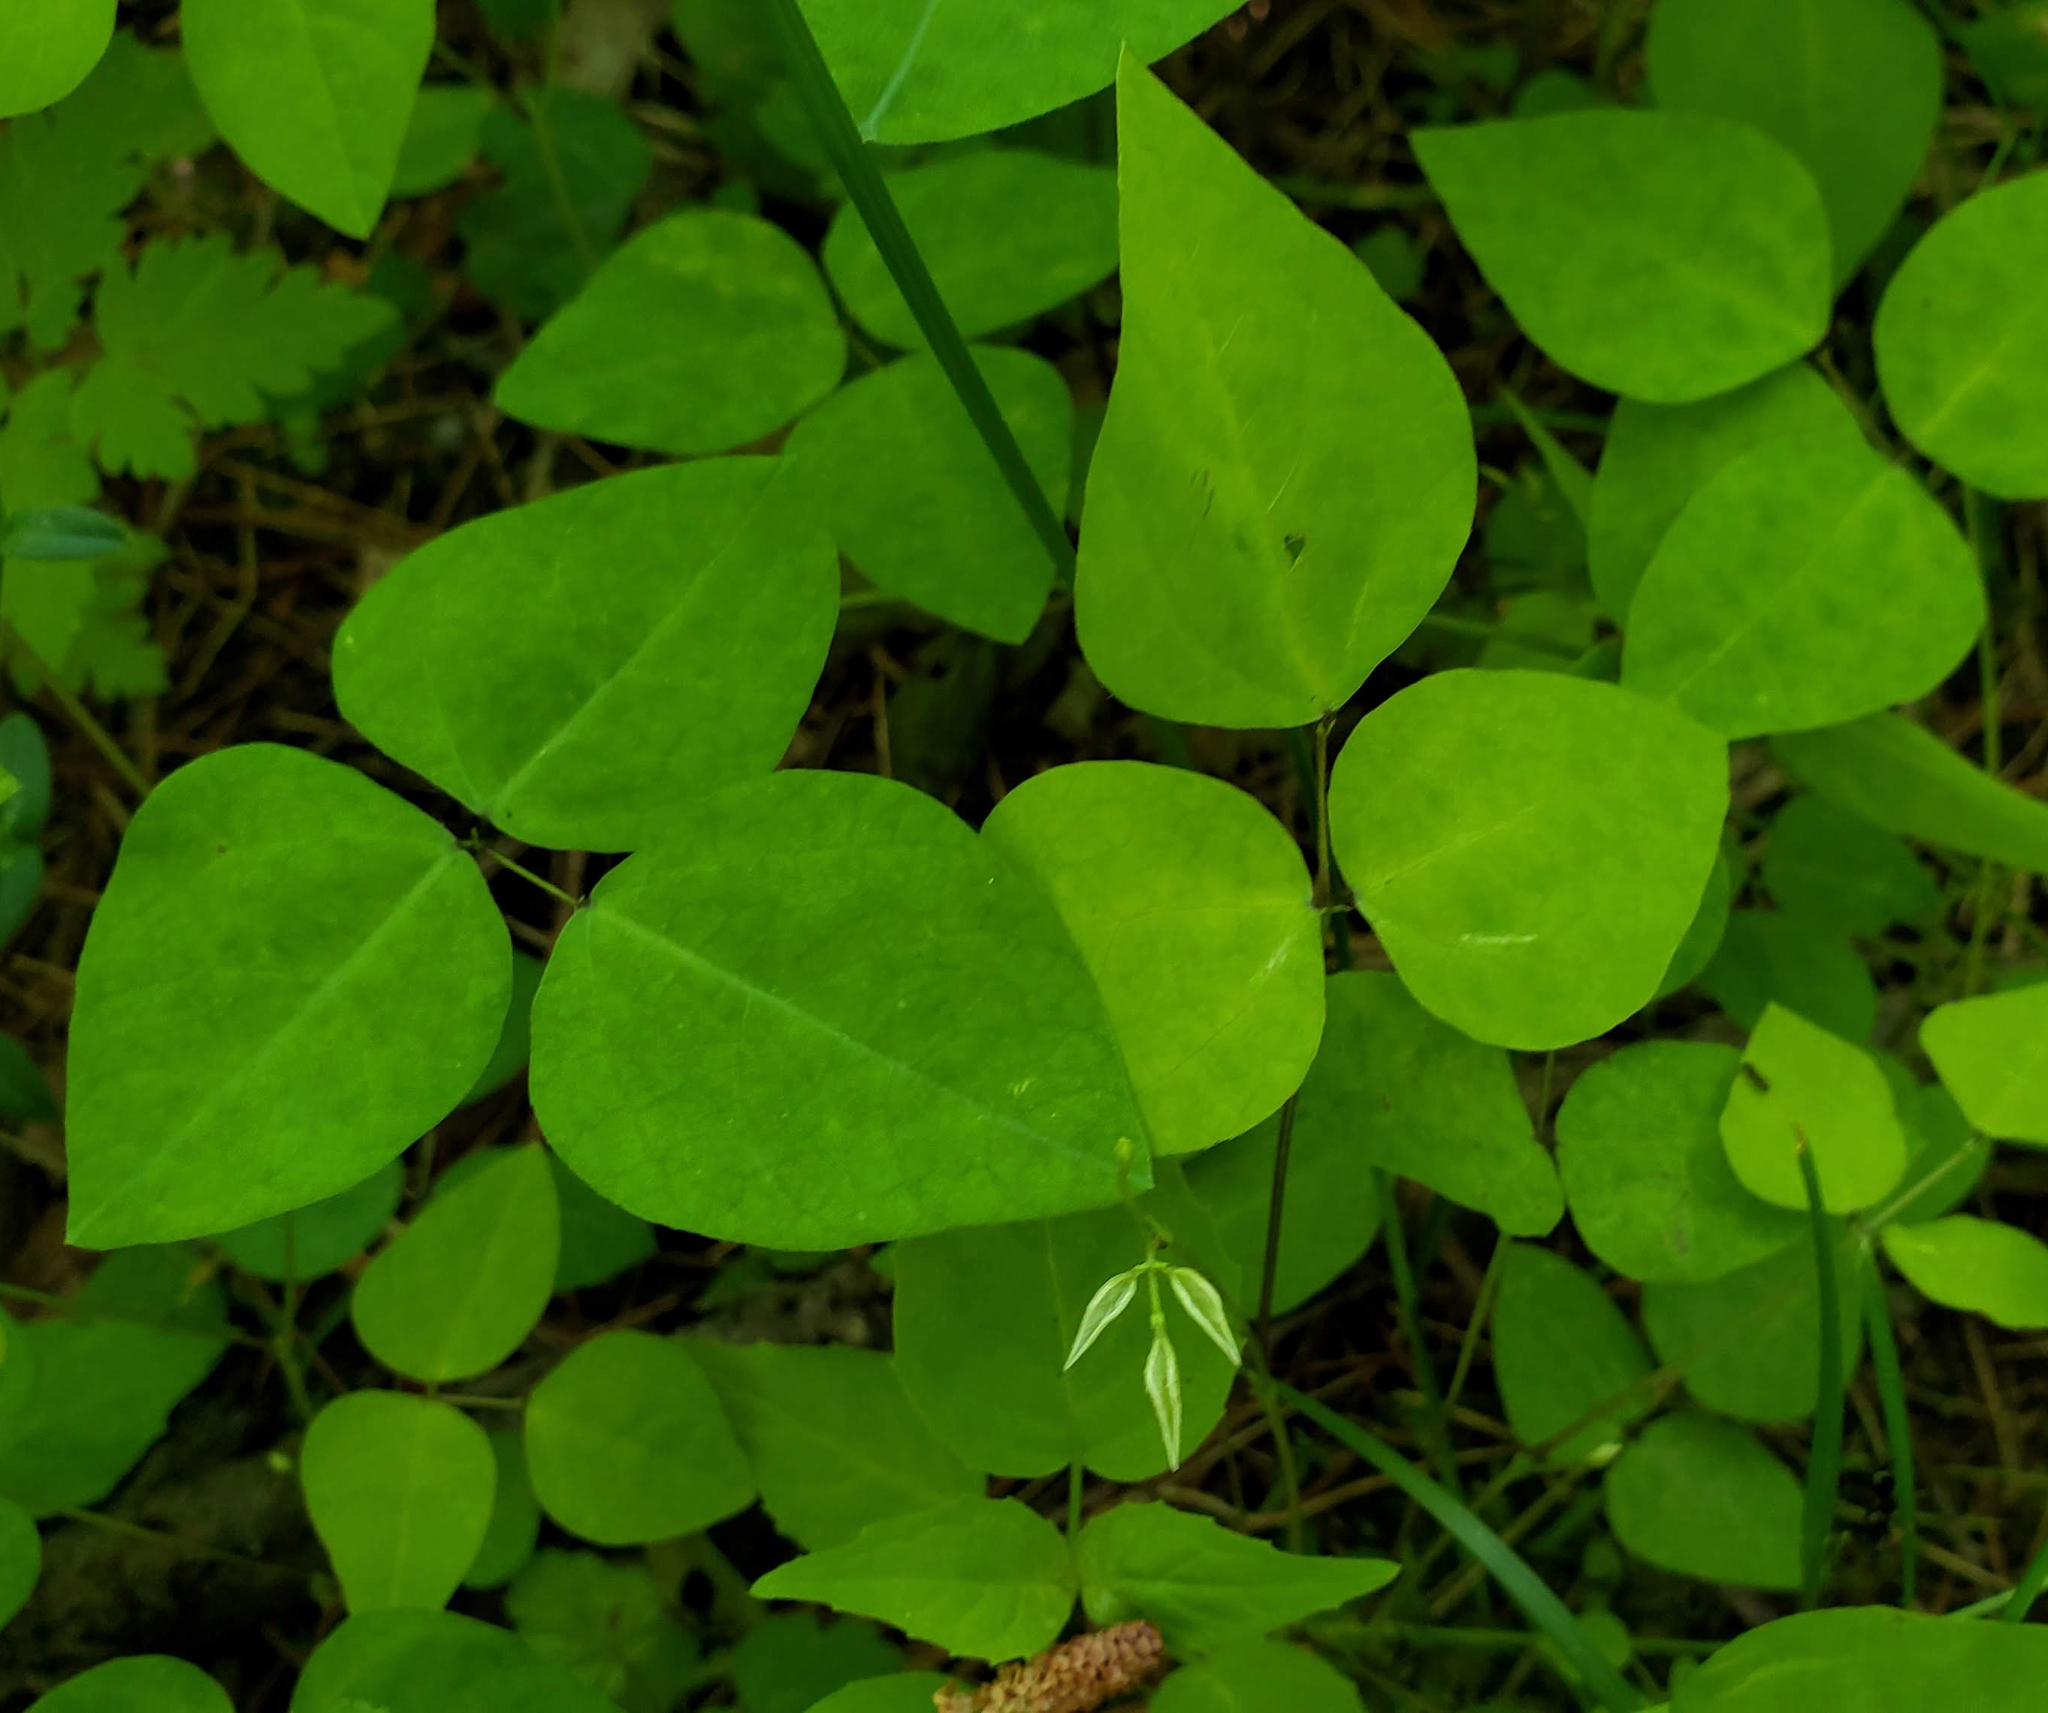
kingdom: Plantae
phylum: Tracheophyta
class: Magnoliopsida
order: Fabales
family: Fabaceae
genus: Amphicarpaea
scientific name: Amphicarpaea bracteata
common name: American hog peanut
